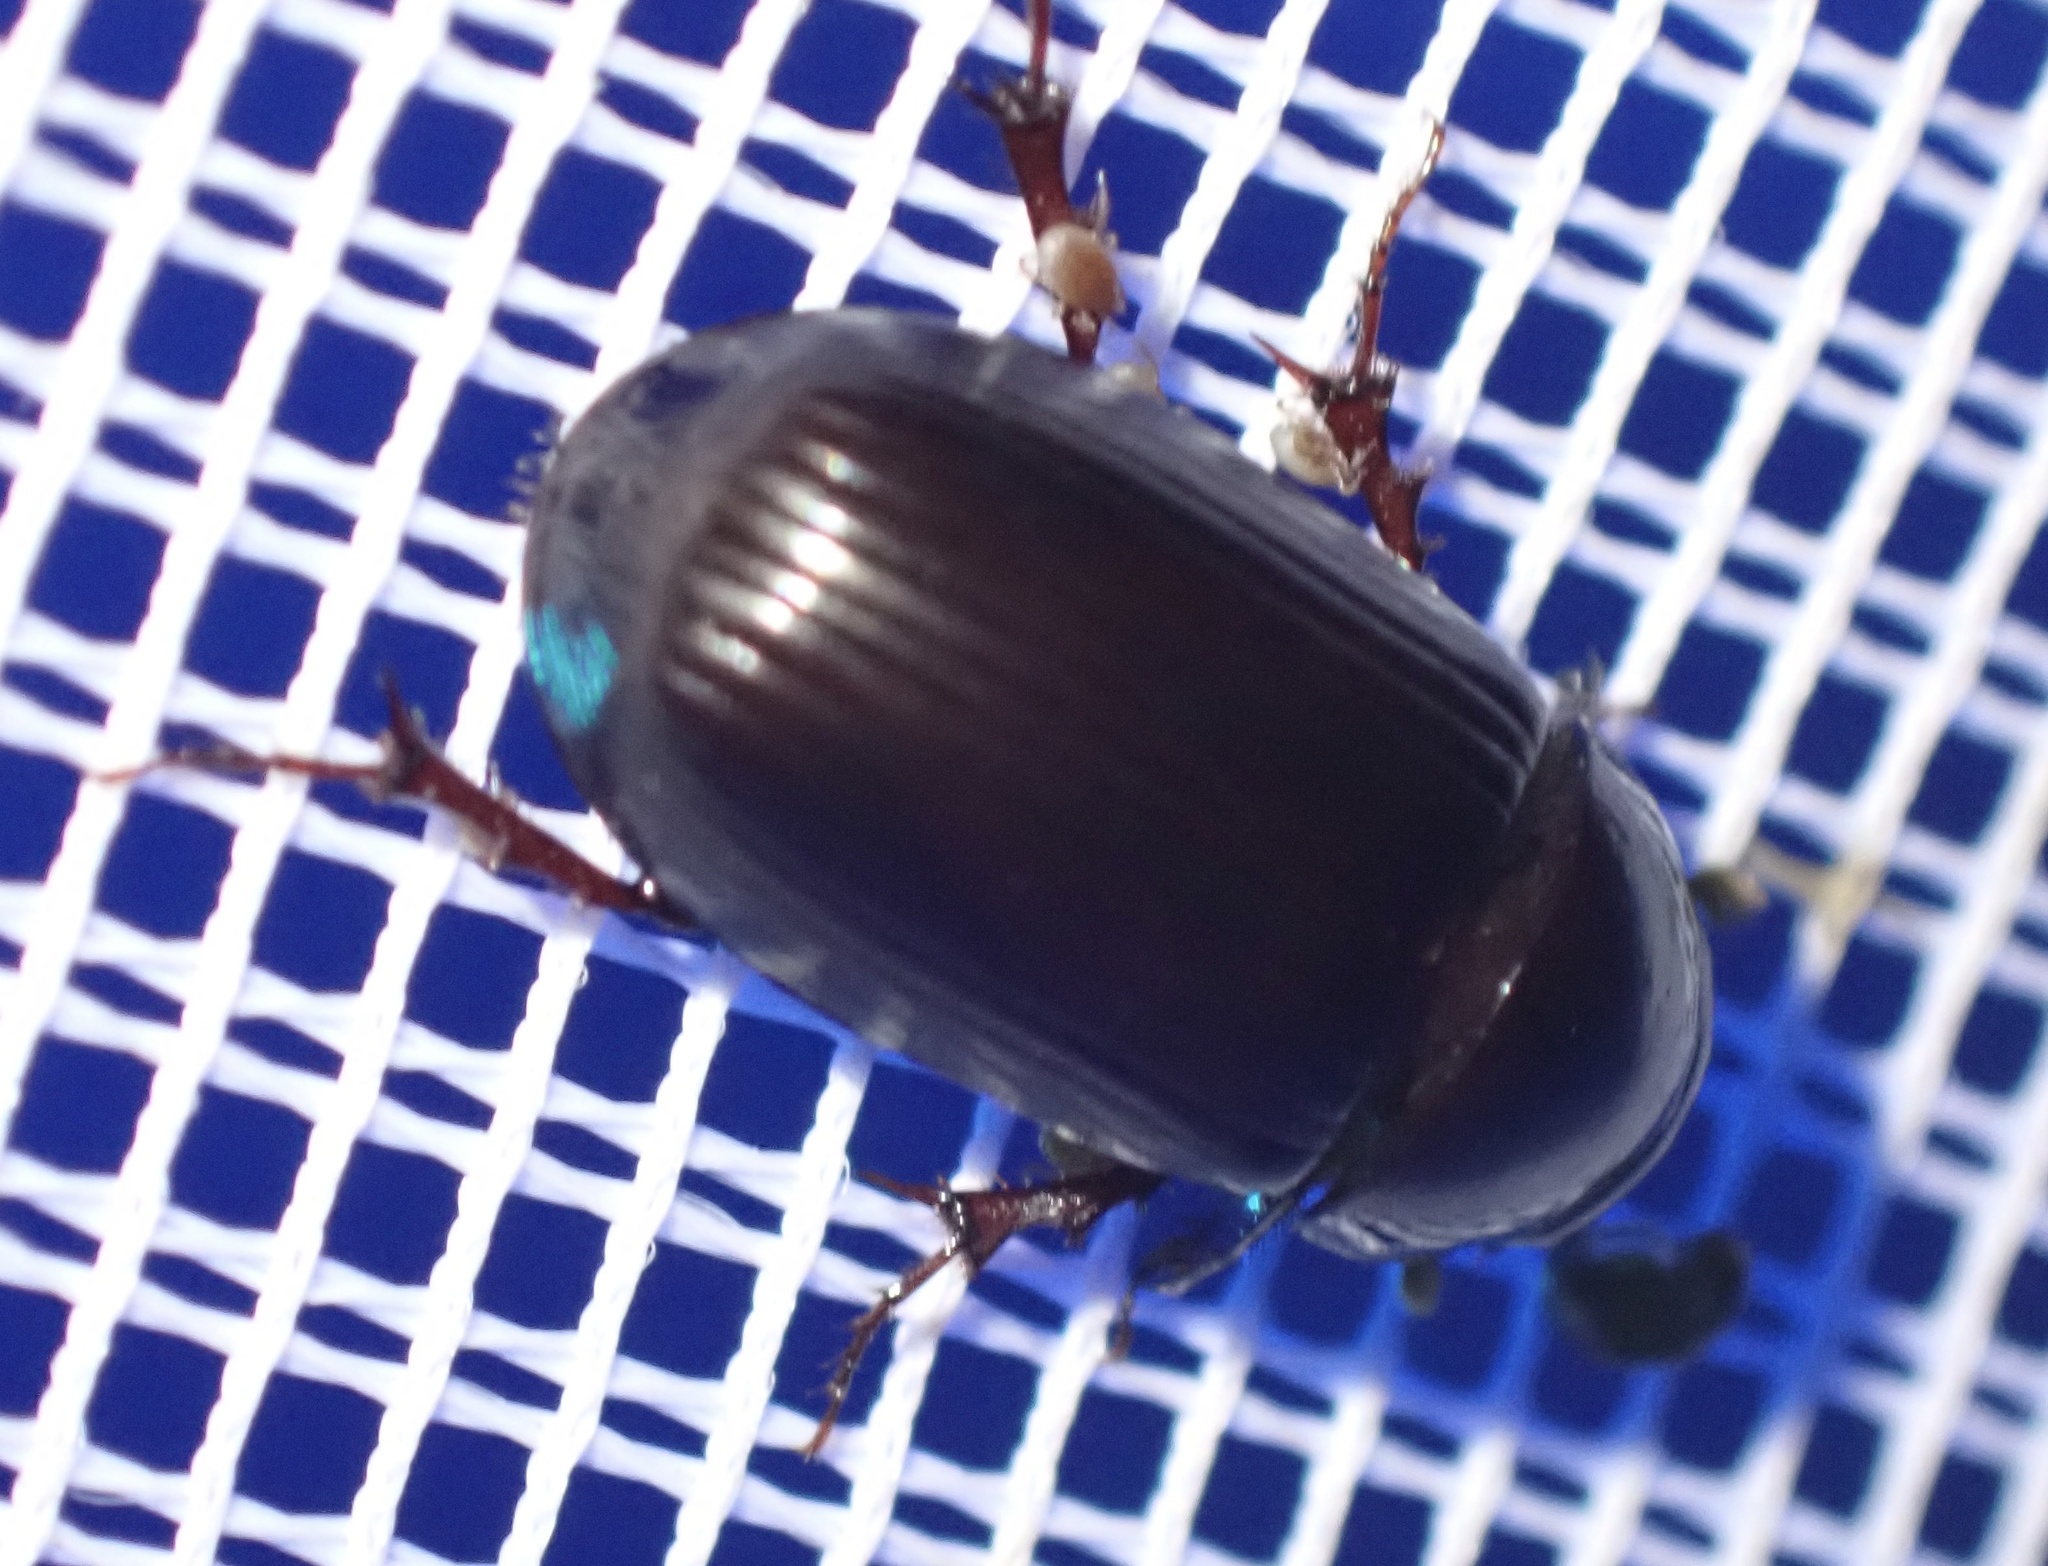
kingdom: Animalia
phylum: Arthropoda
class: Insecta
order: Coleoptera
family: Scarabaeidae
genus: Acrossus
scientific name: Acrossus rufipes
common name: Night-flying dung beetle
